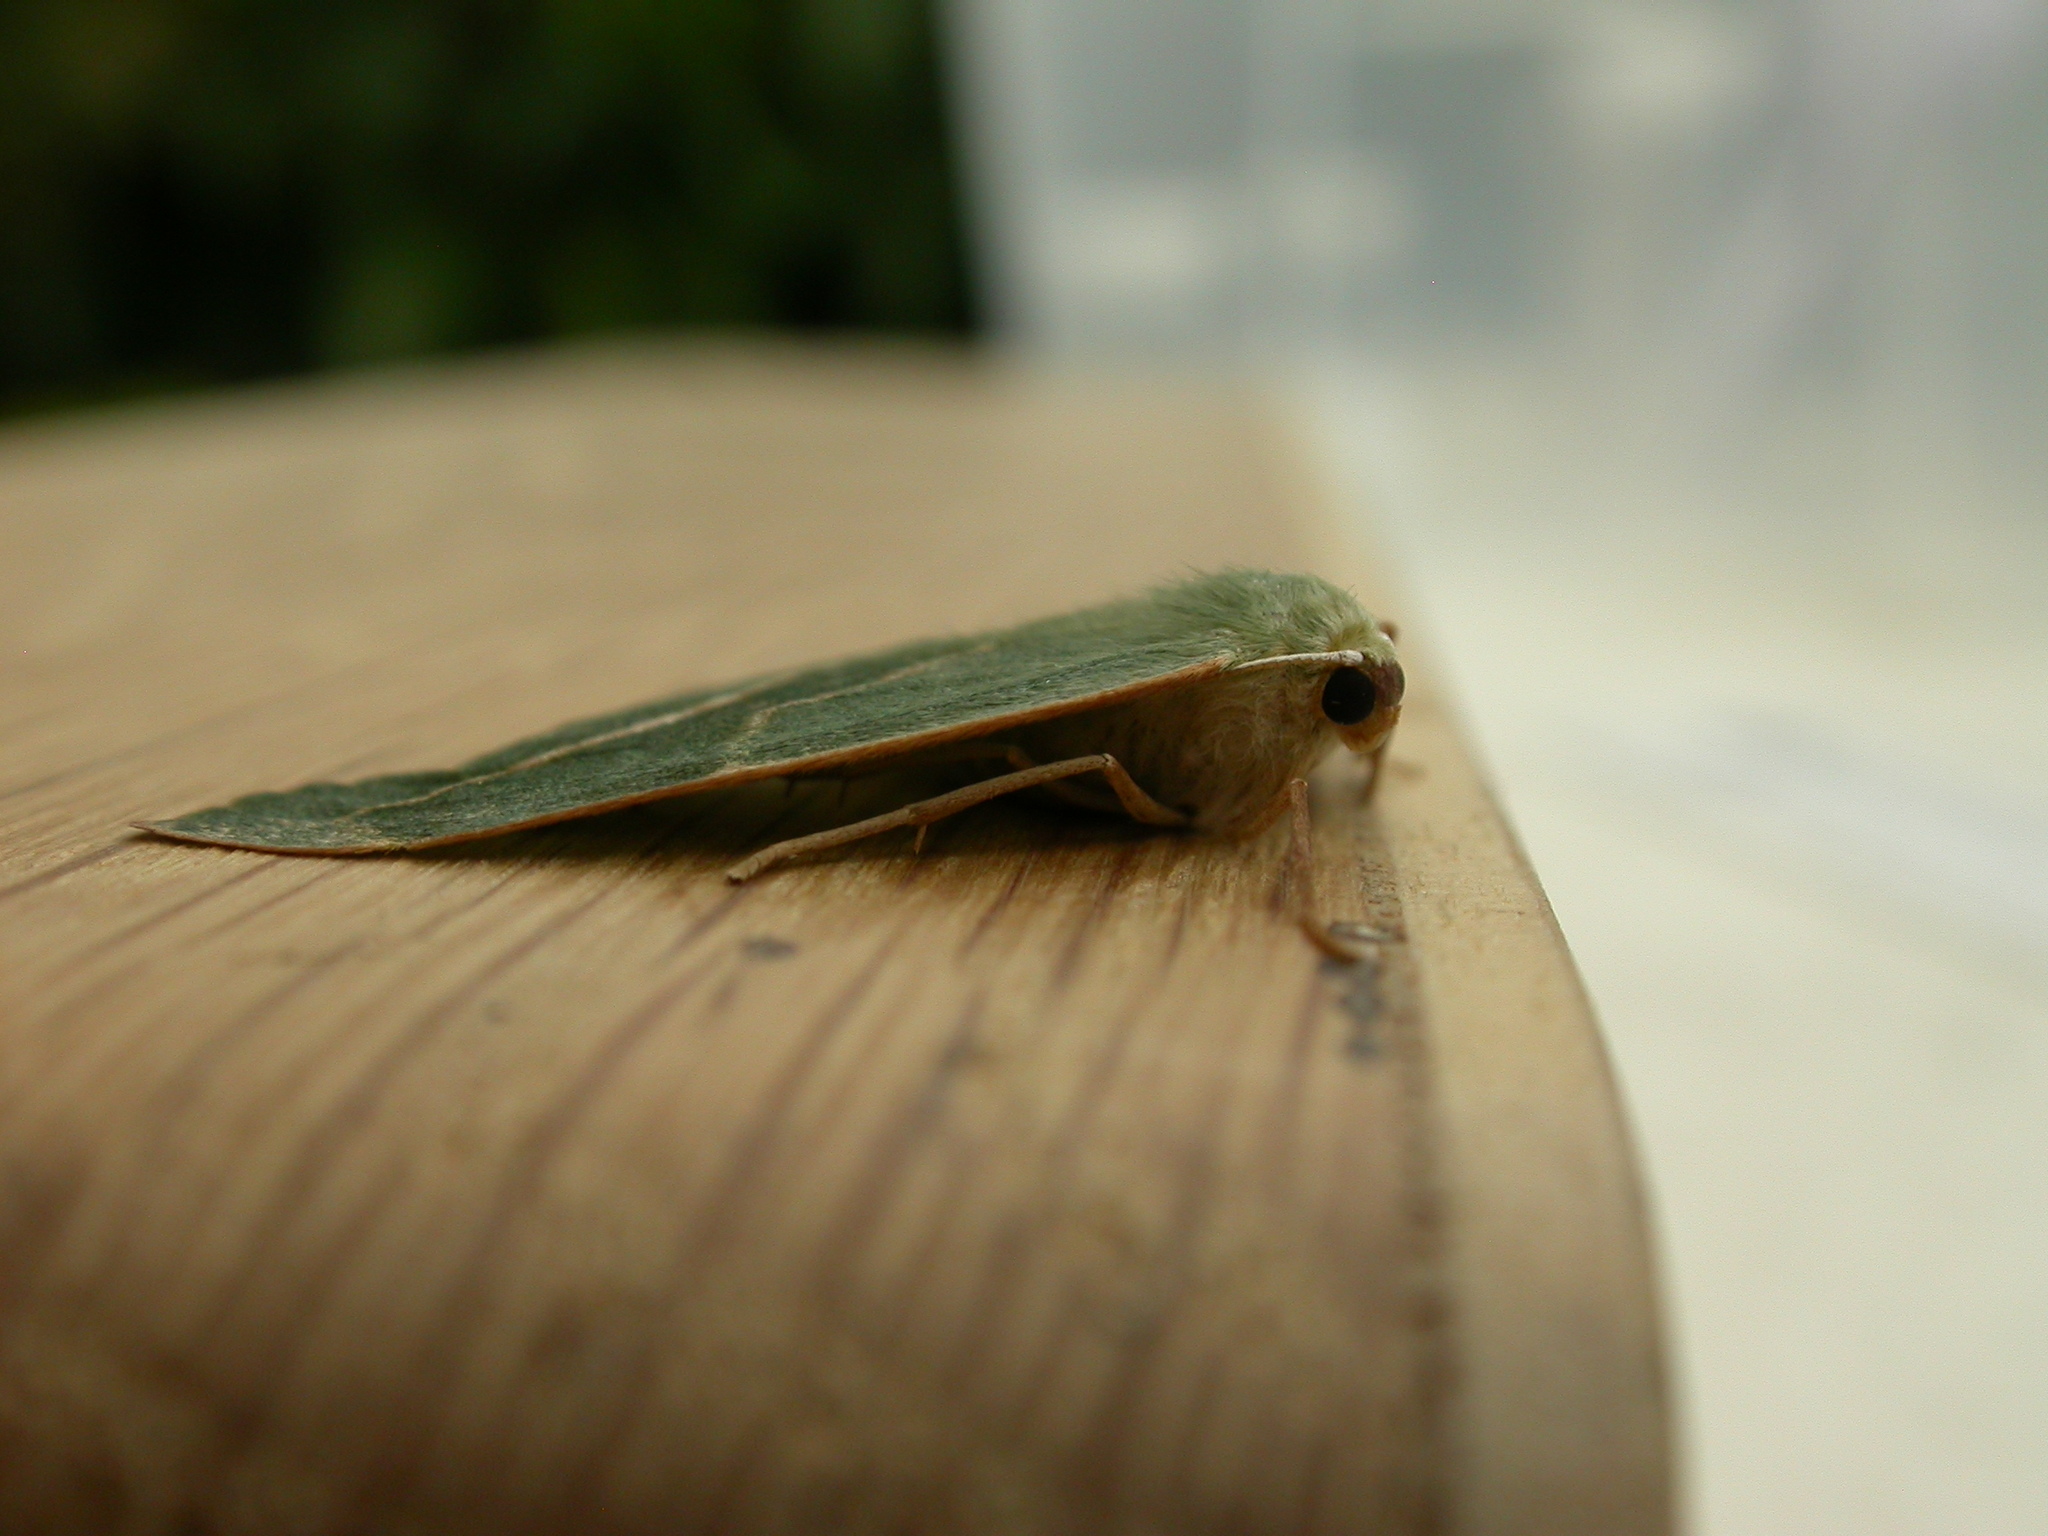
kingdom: Animalia
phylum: Arthropoda
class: Insecta
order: Lepidoptera
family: Geometridae
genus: Hylaea
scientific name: Hylaea fasciaria
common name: Barred red
